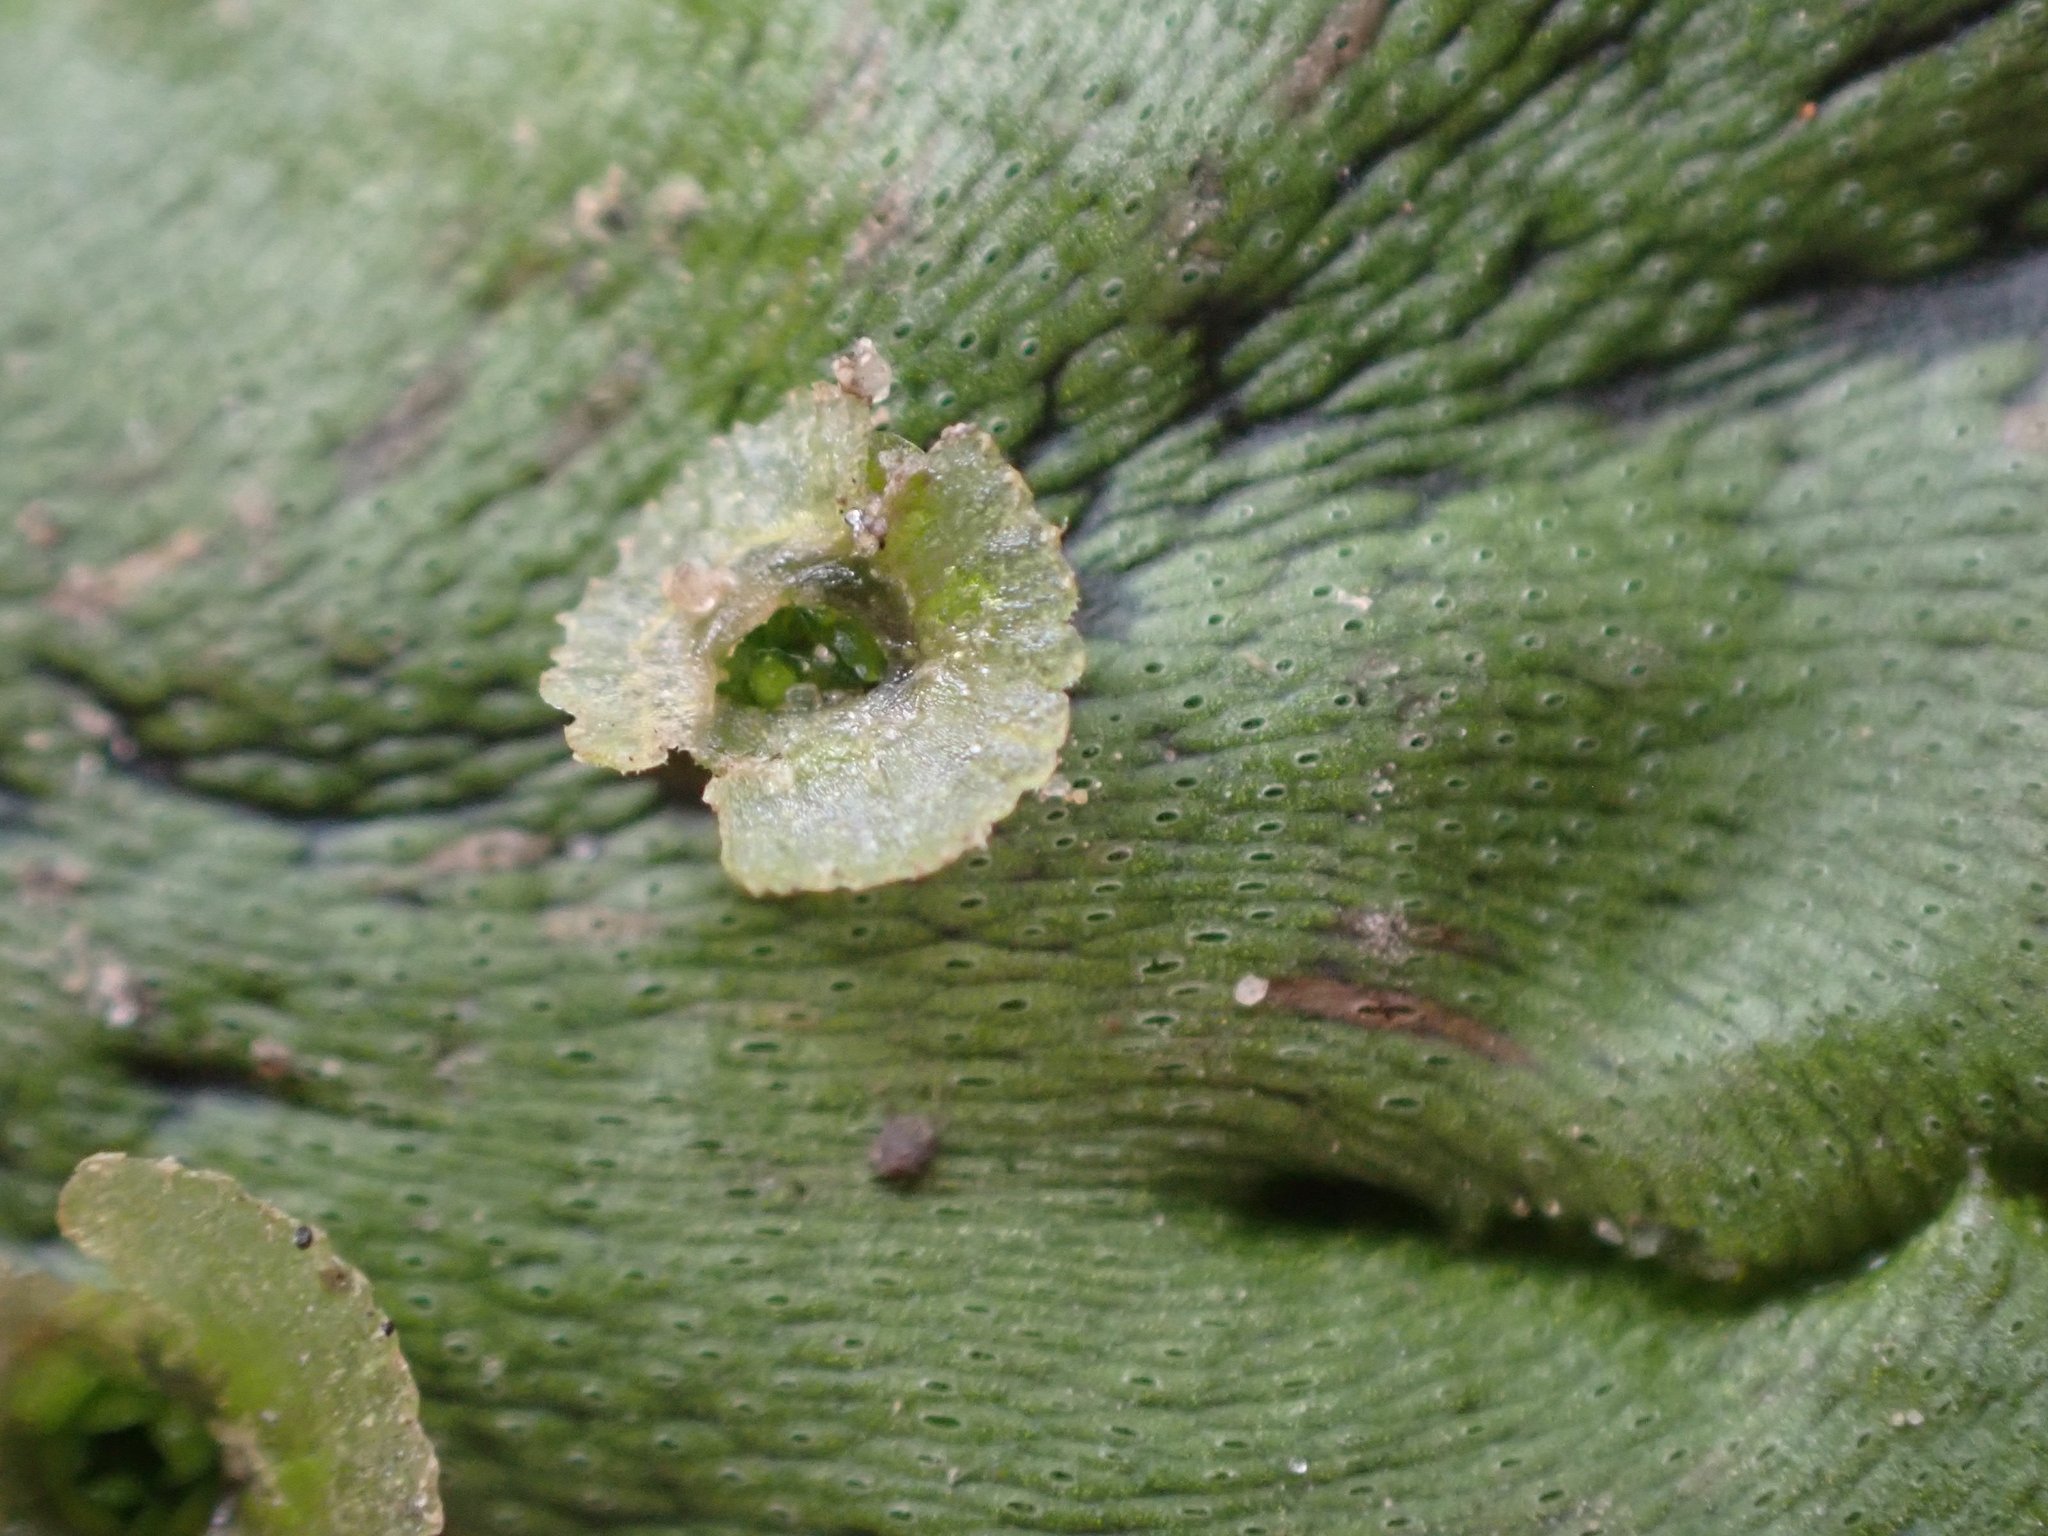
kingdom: Plantae
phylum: Marchantiophyta
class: Marchantiopsida
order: Marchantiales
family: Marchantiaceae
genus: Marchantia
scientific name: Marchantia polymorpha
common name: Common liverwort
